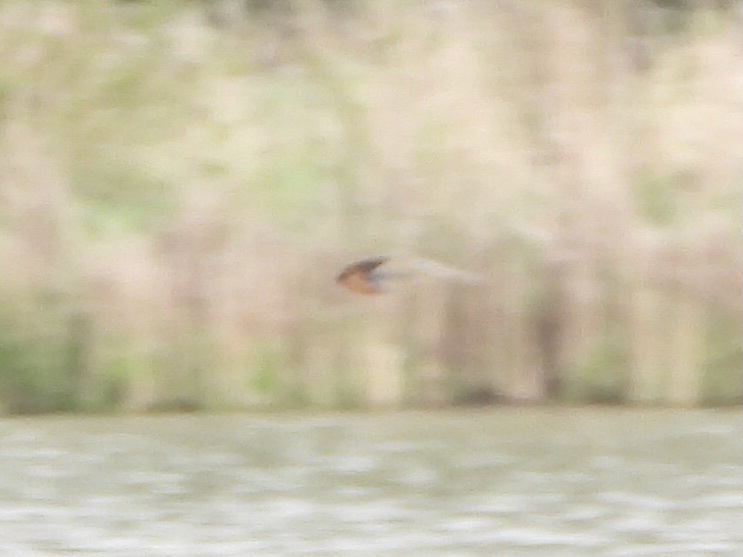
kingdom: Animalia
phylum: Chordata
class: Aves
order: Passeriformes
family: Hirundinidae
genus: Hirundo
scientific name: Hirundo rustica
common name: Barn swallow
